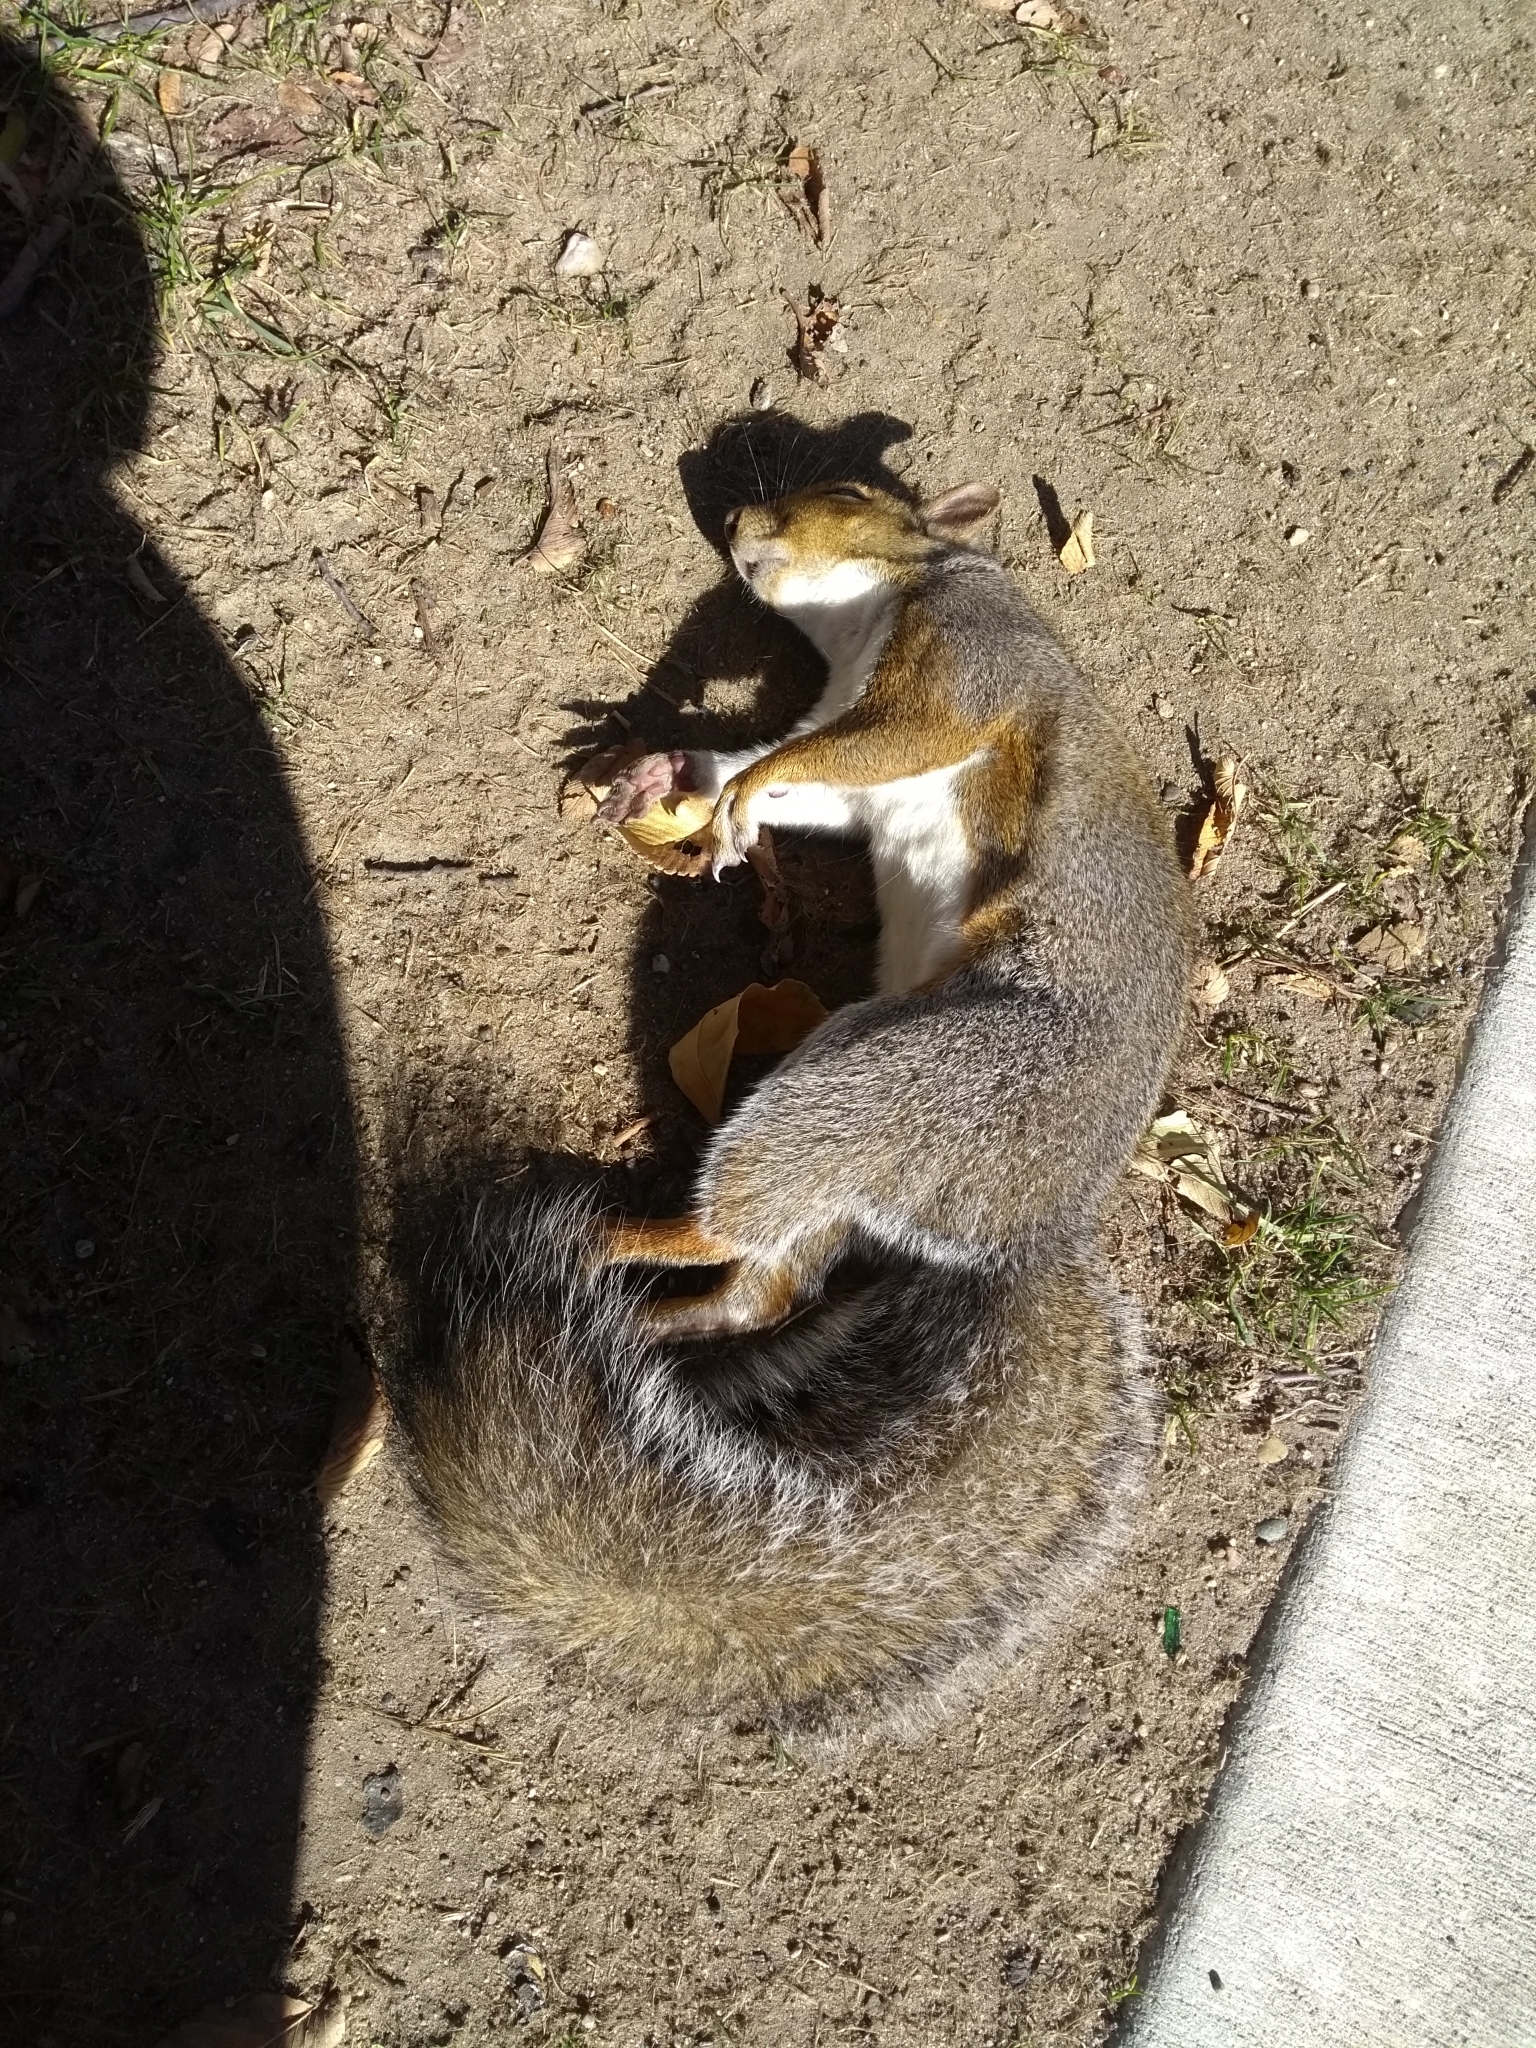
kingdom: Animalia
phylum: Chordata
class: Mammalia
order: Rodentia
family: Sciuridae
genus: Sciurus
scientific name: Sciurus carolinensis
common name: Eastern gray squirrel
